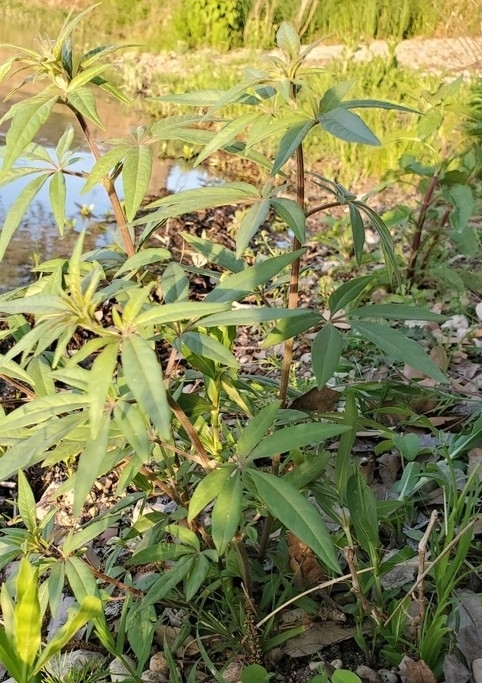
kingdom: Plantae
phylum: Tracheophyta
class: Magnoliopsida
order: Lamiales
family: Lamiaceae
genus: Vitex
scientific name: Vitex agnus-castus
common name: Chasteberry
